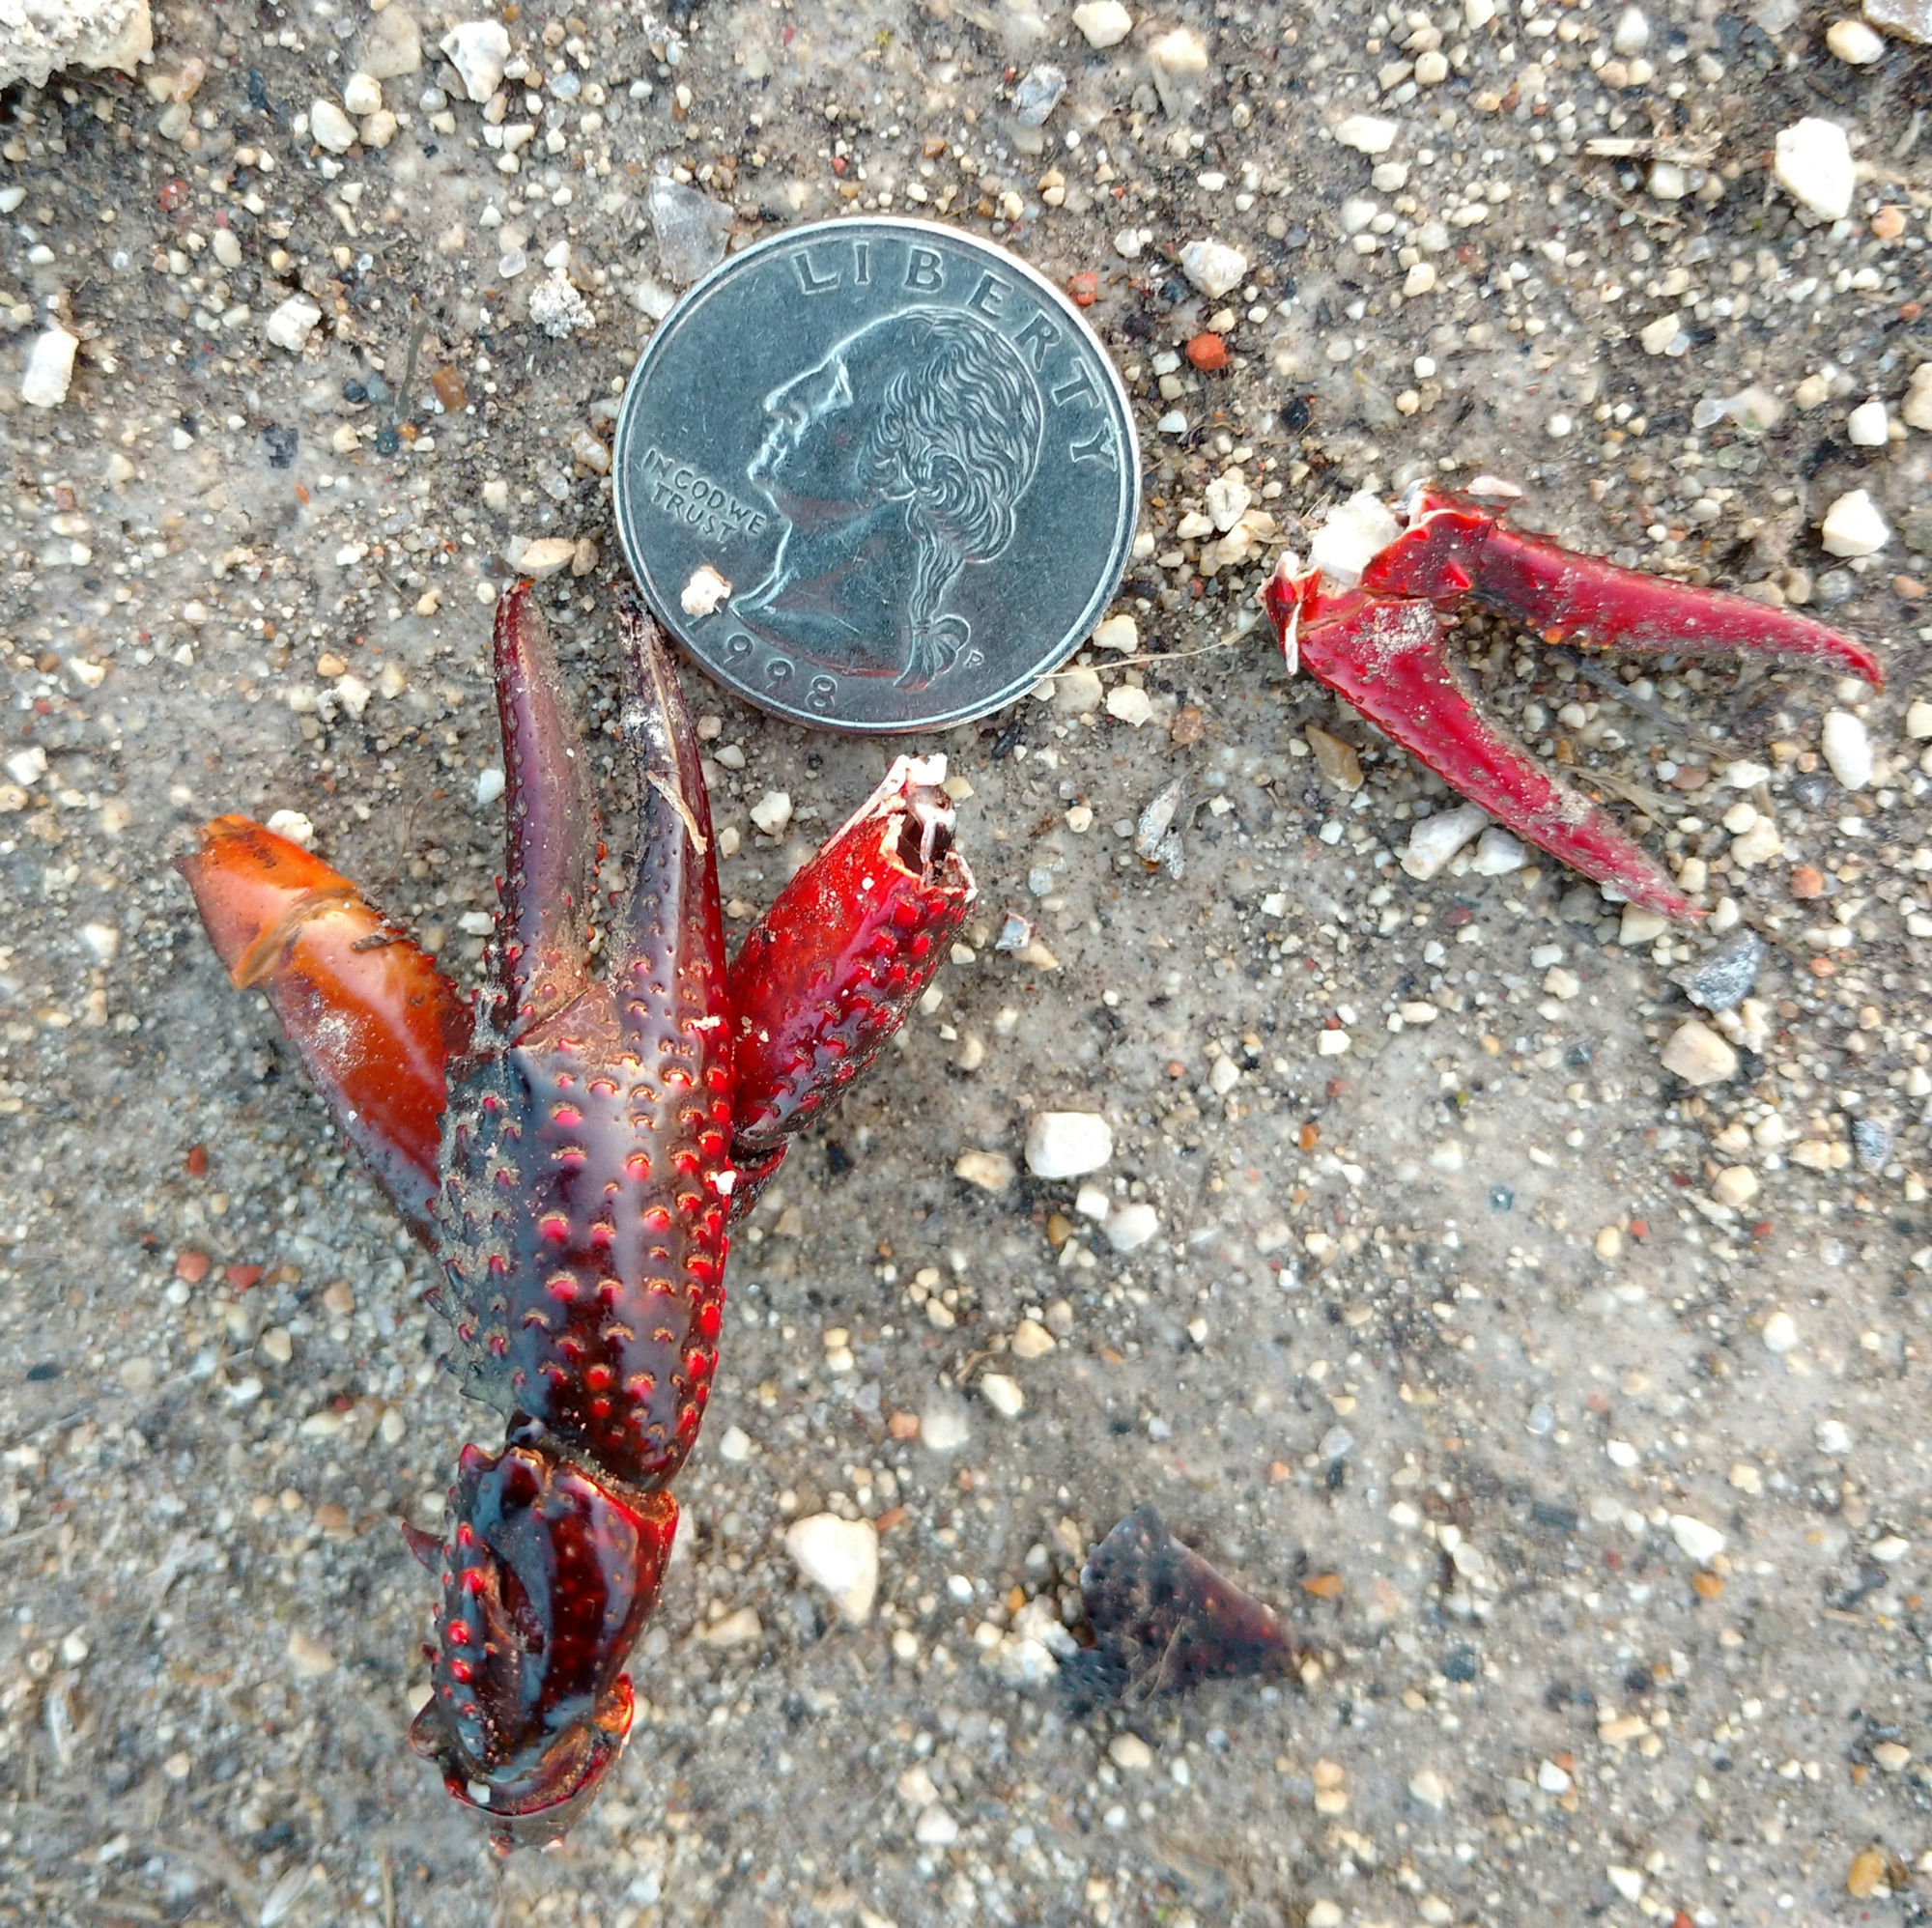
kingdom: Animalia
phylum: Arthropoda
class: Malacostraca
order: Decapoda
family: Cambaridae
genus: Procambarus
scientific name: Procambarus clarkii
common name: Red swamp crayfish
